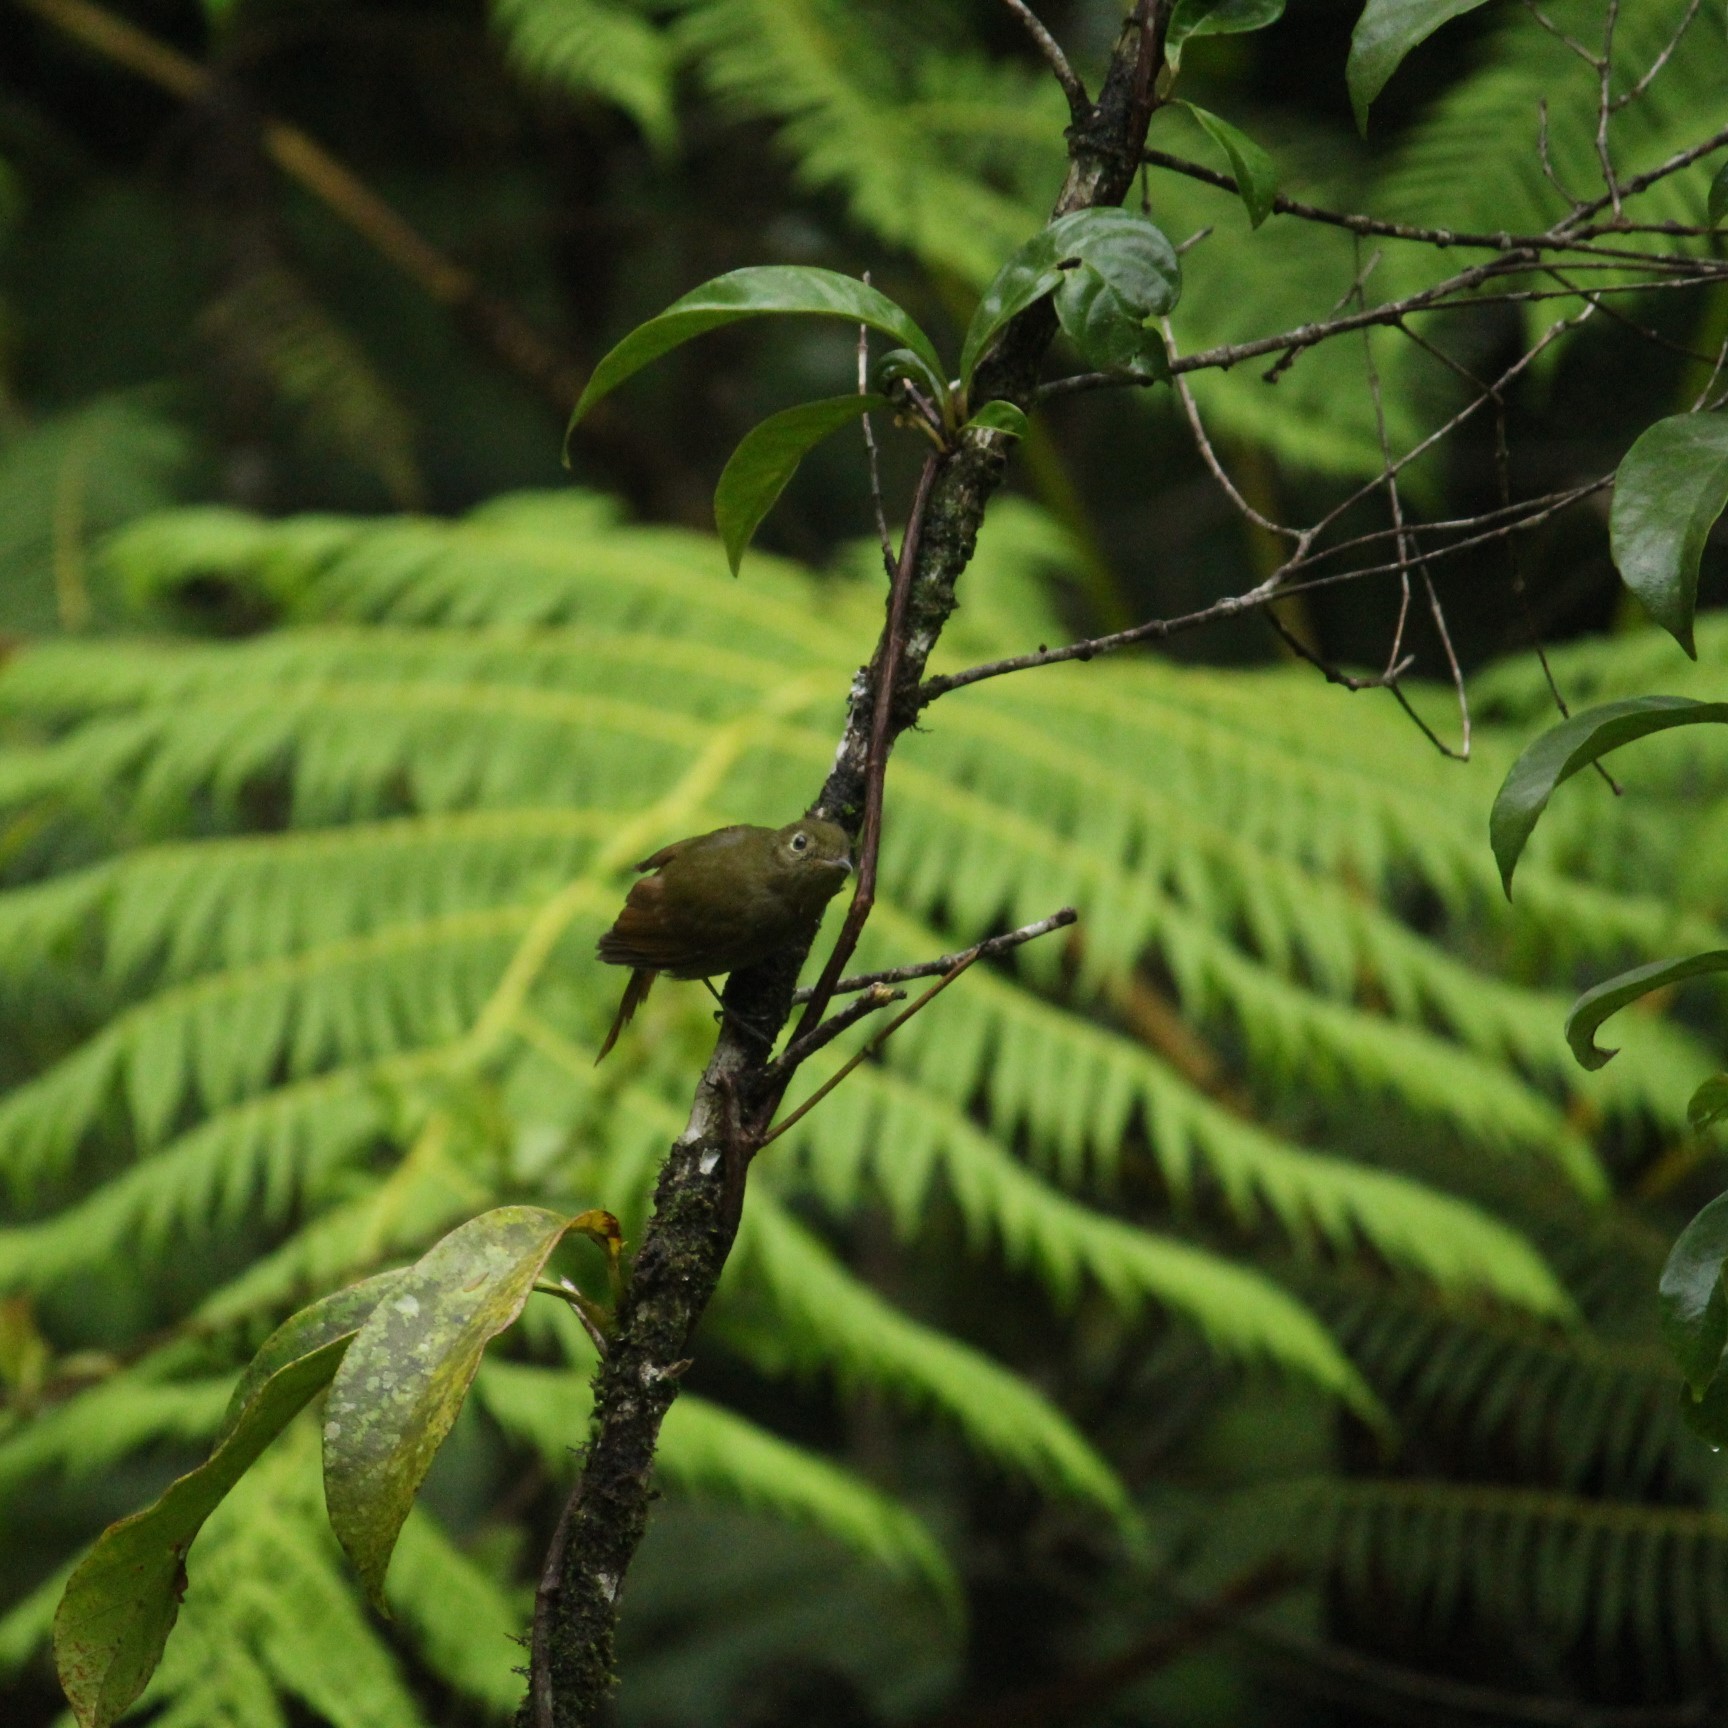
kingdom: Animalia
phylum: Chordata
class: Aves
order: Passeriformes
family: Cotingidae
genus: Schiffornis
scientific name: Schiffornis virescens
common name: Greenish schiffornis
